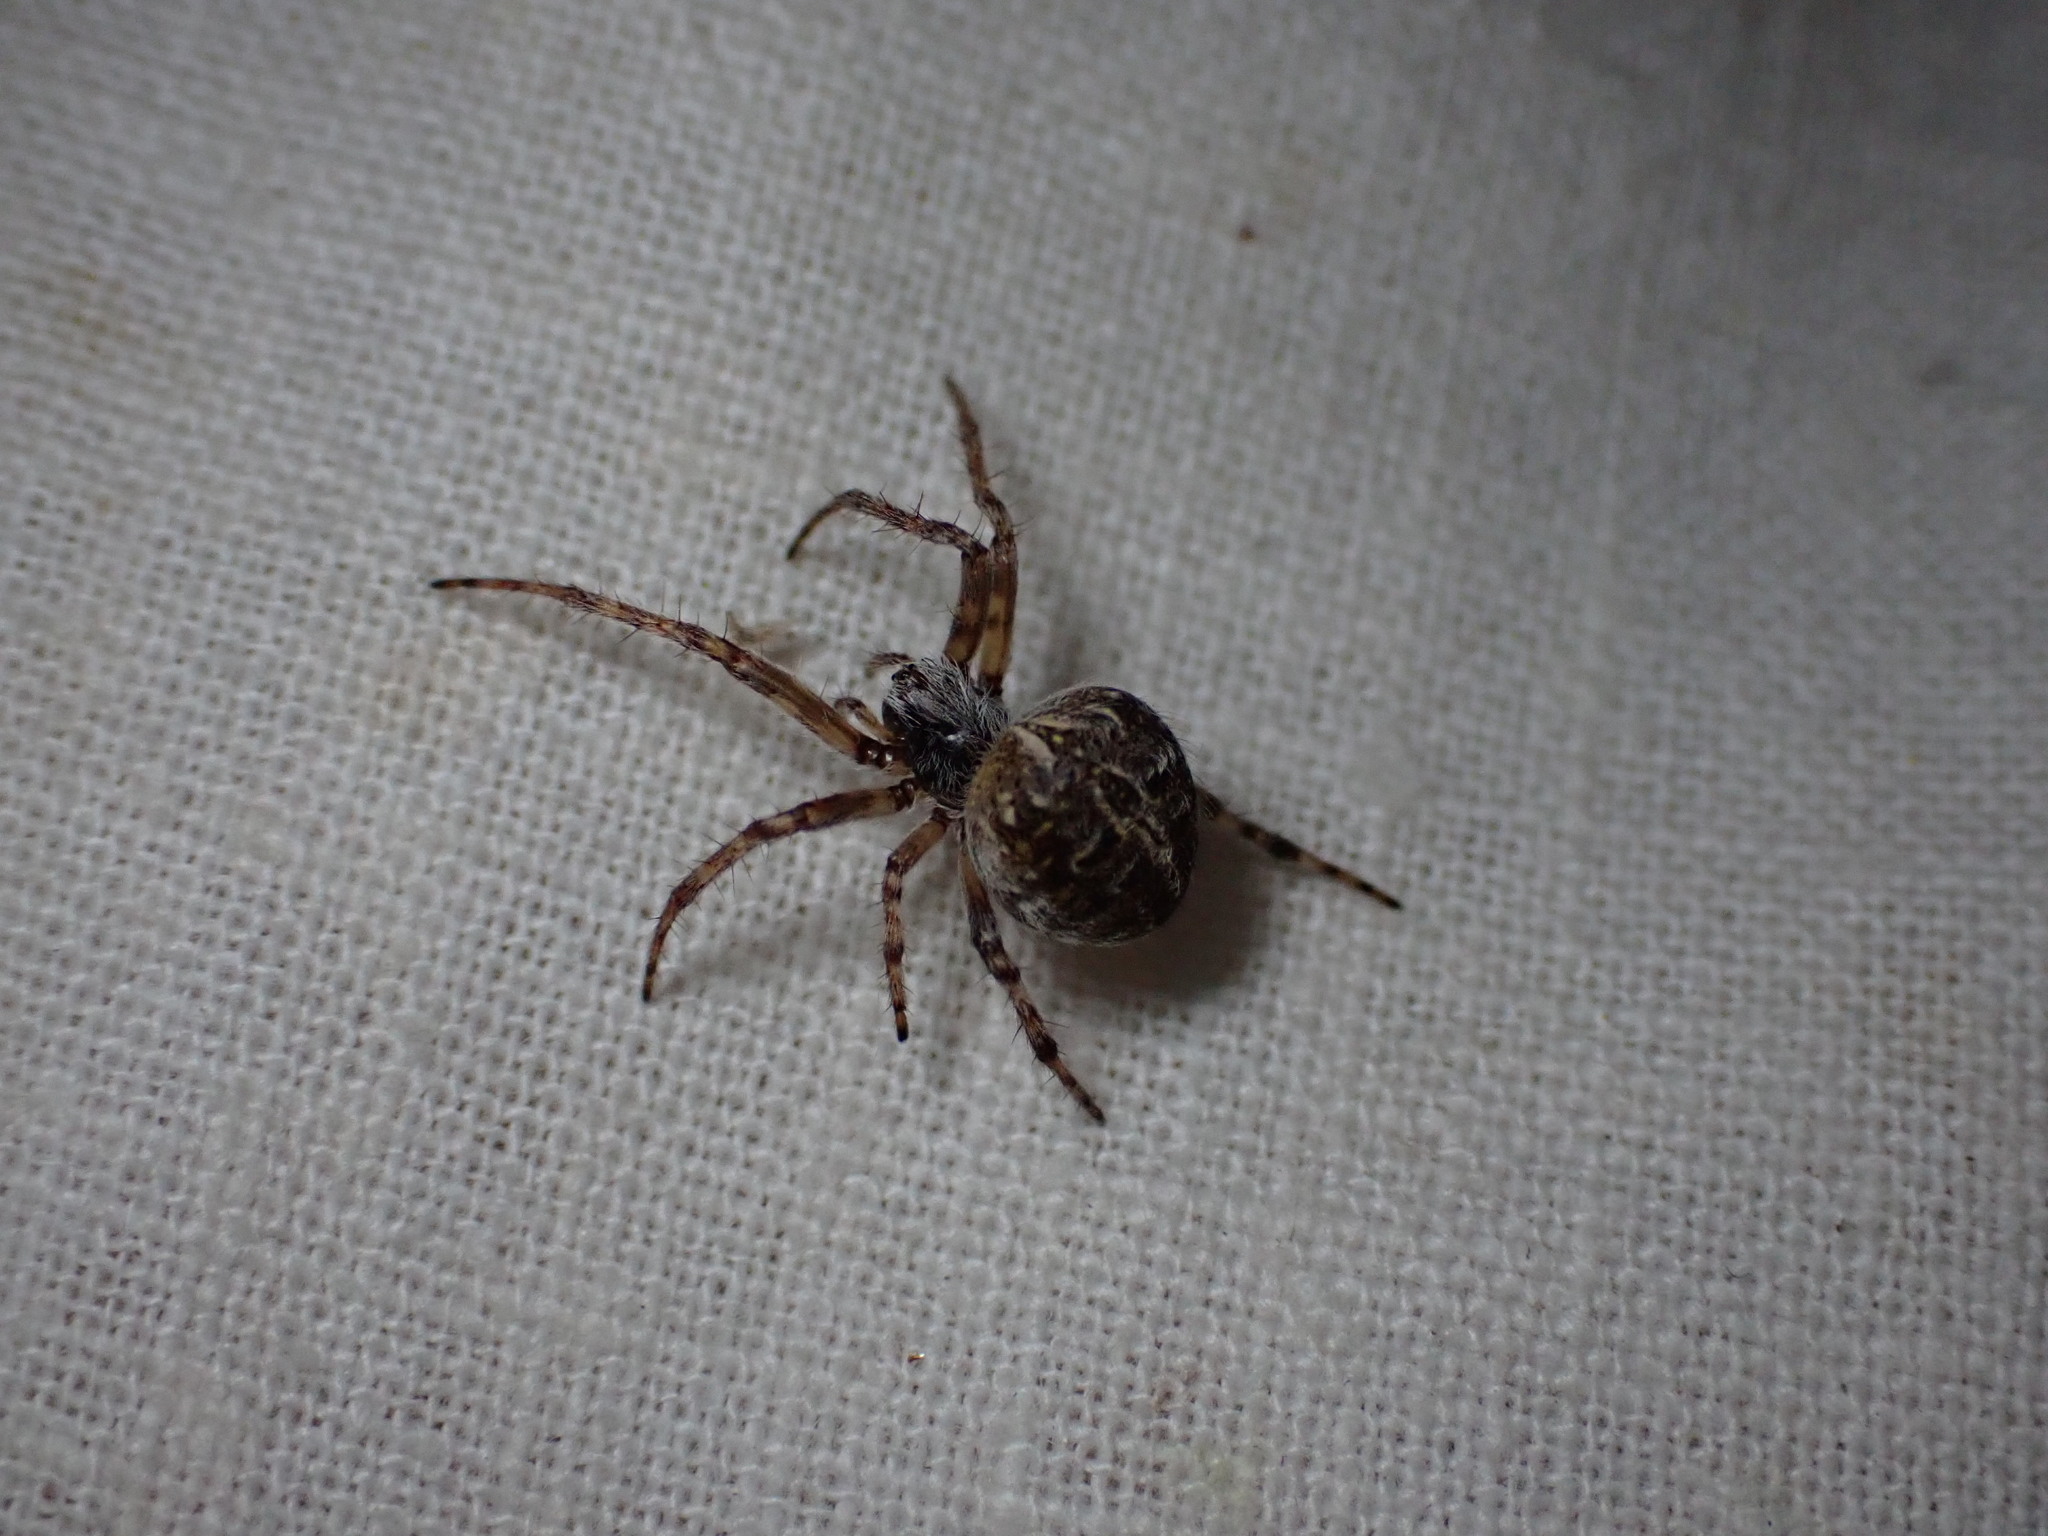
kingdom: Animalia
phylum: Arthropoda
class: Arachnida
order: Araneae
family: Araneidae
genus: Agalenatea
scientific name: Agalenatea redii
